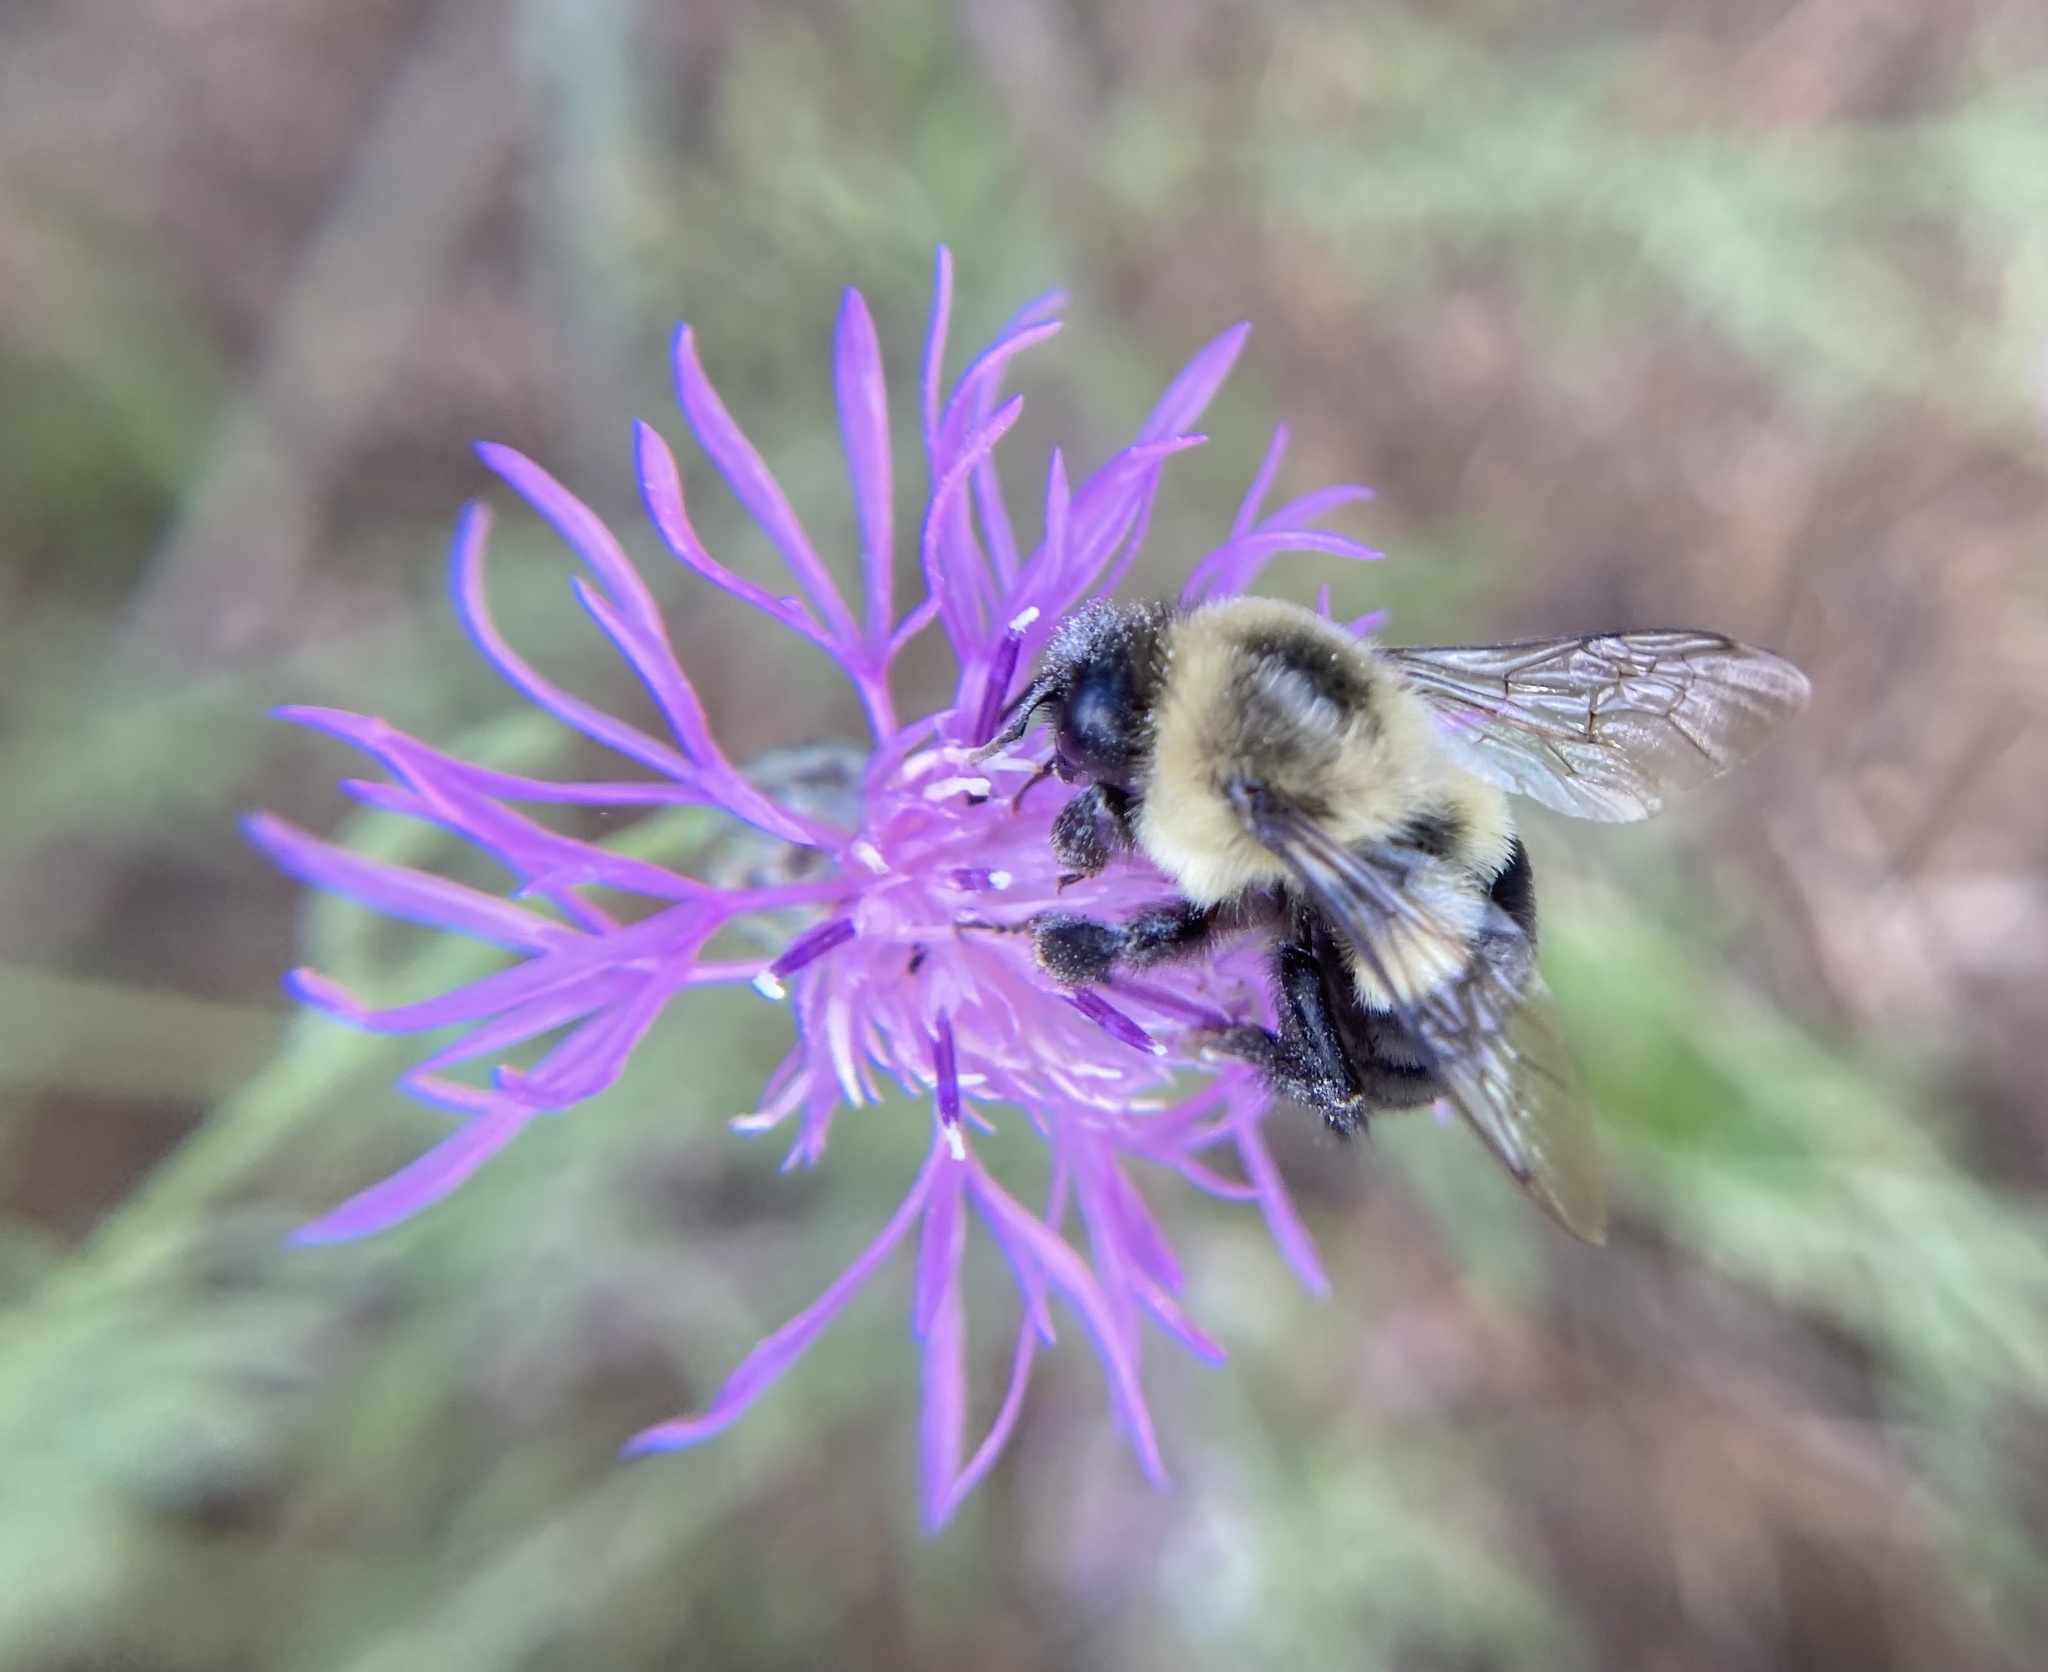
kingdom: Animalia
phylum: Arthropoda
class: Insecta
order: Hymenoptera
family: Apidae
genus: Bombus
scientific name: Bombus impatiens
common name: Common eastern bumble bee
